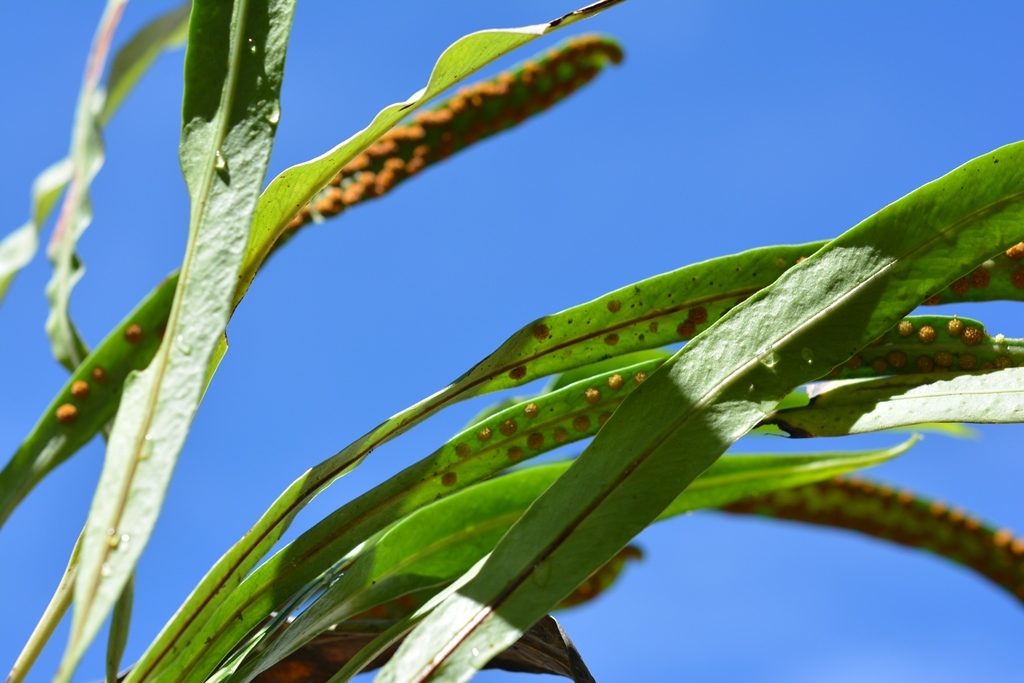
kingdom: Plantae
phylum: Tracheophyta
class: Polypodiopsida
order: Polypodiales
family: Polypodiaceae
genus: Campyloneurum
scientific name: Campyloneurum amphostenon
